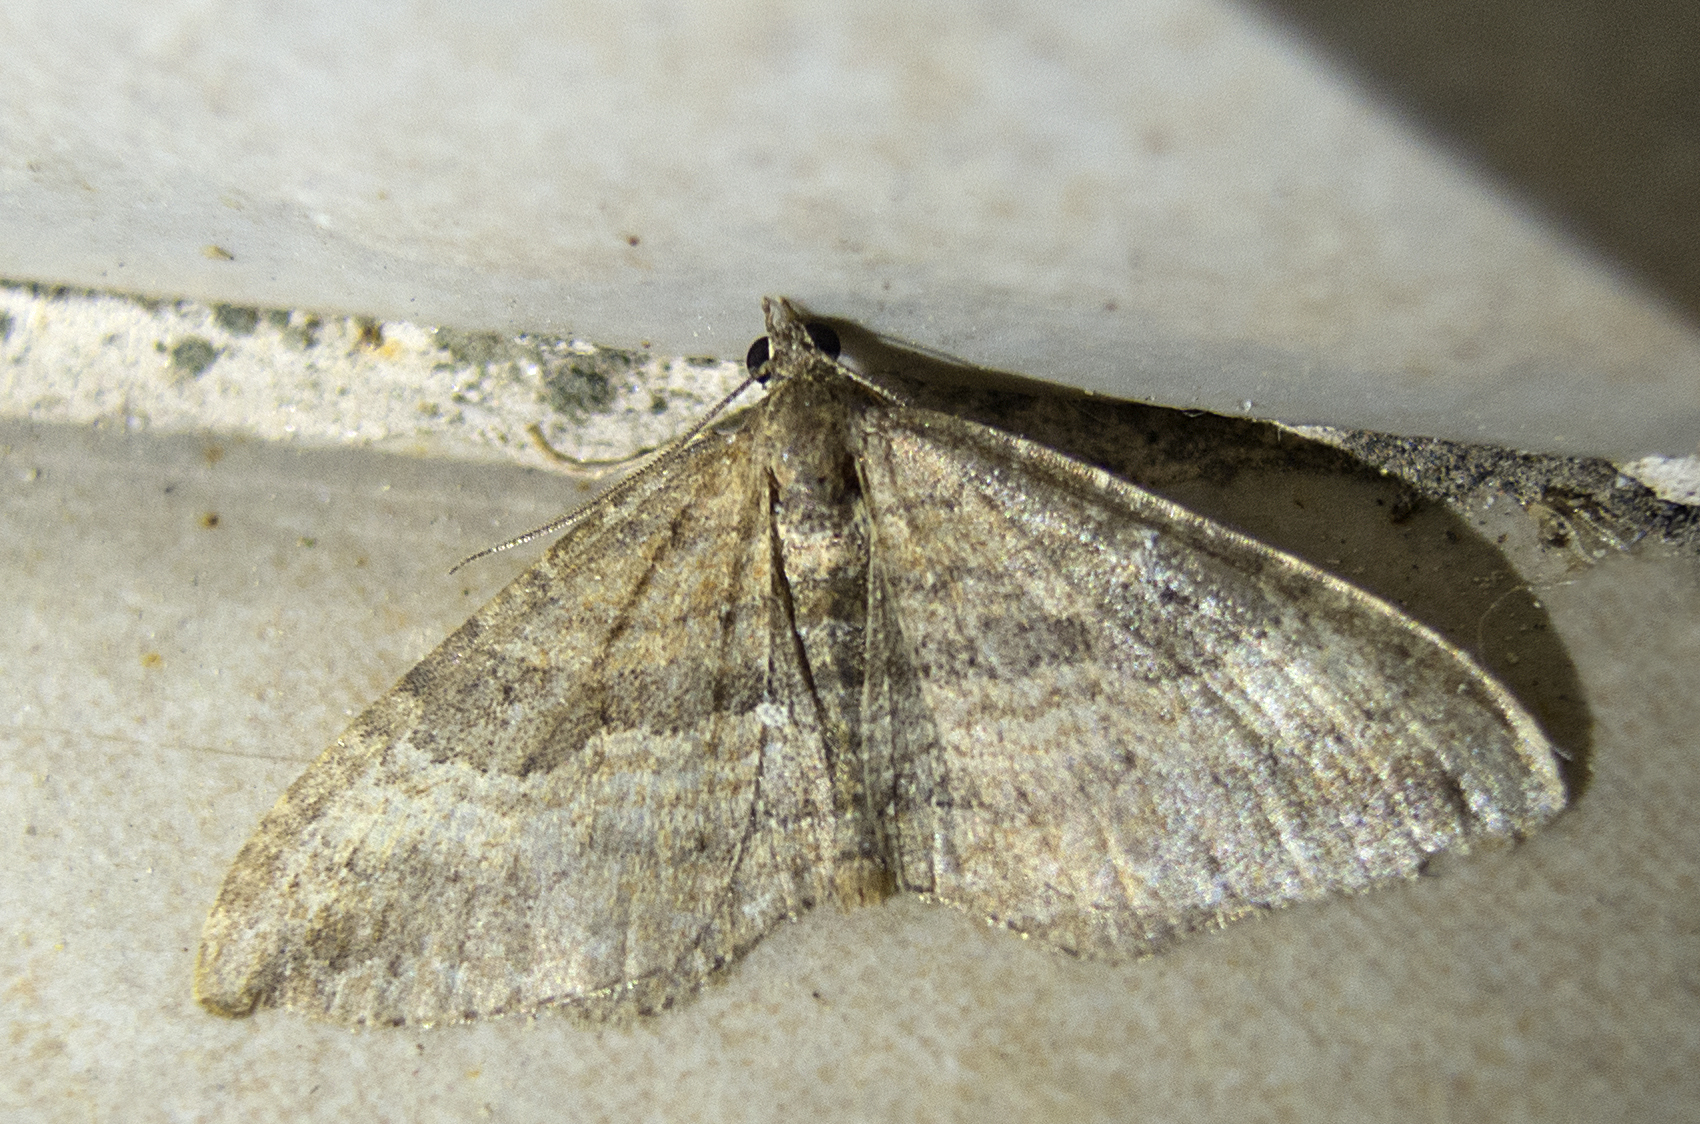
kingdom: Animalia
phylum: Arthropoda
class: Insecta
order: Lepidoptera
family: Geometridae
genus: Orthonama
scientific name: Orthonama obstipata
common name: The gem
